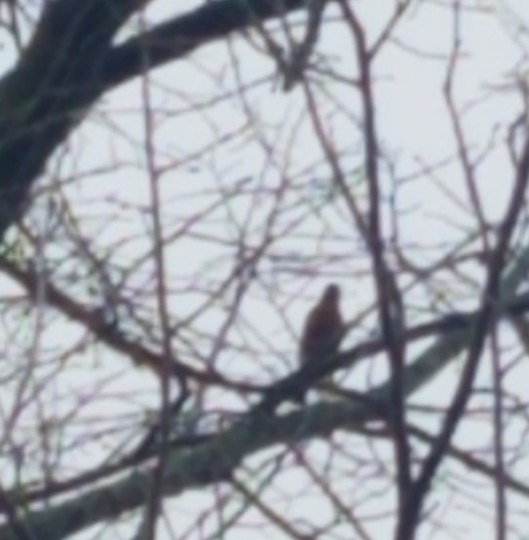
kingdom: Animalia
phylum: Chordata
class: Aves
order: Passeriformes
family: Turdidae
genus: Turdus
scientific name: Turdus migratorius
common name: American robin
